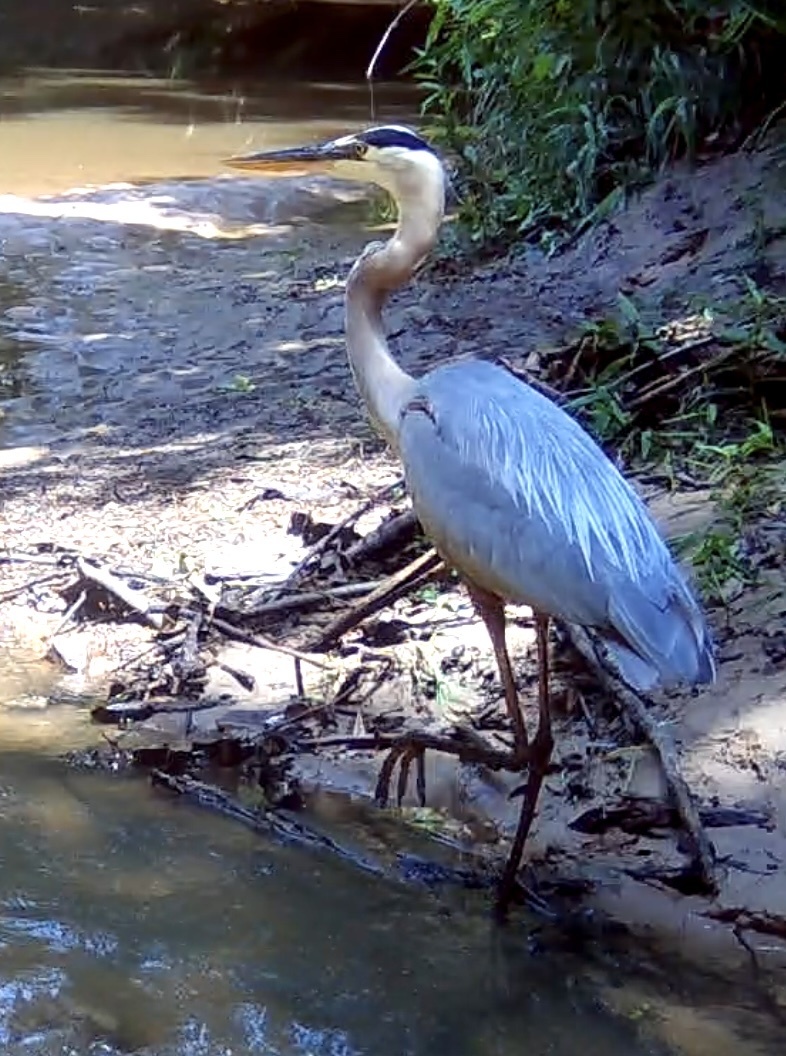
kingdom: Animalia
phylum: Chordata
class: Aves
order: Pelecaniformes
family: Ardeidae
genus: Ardea
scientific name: Ardea herodias
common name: Great blue heron
